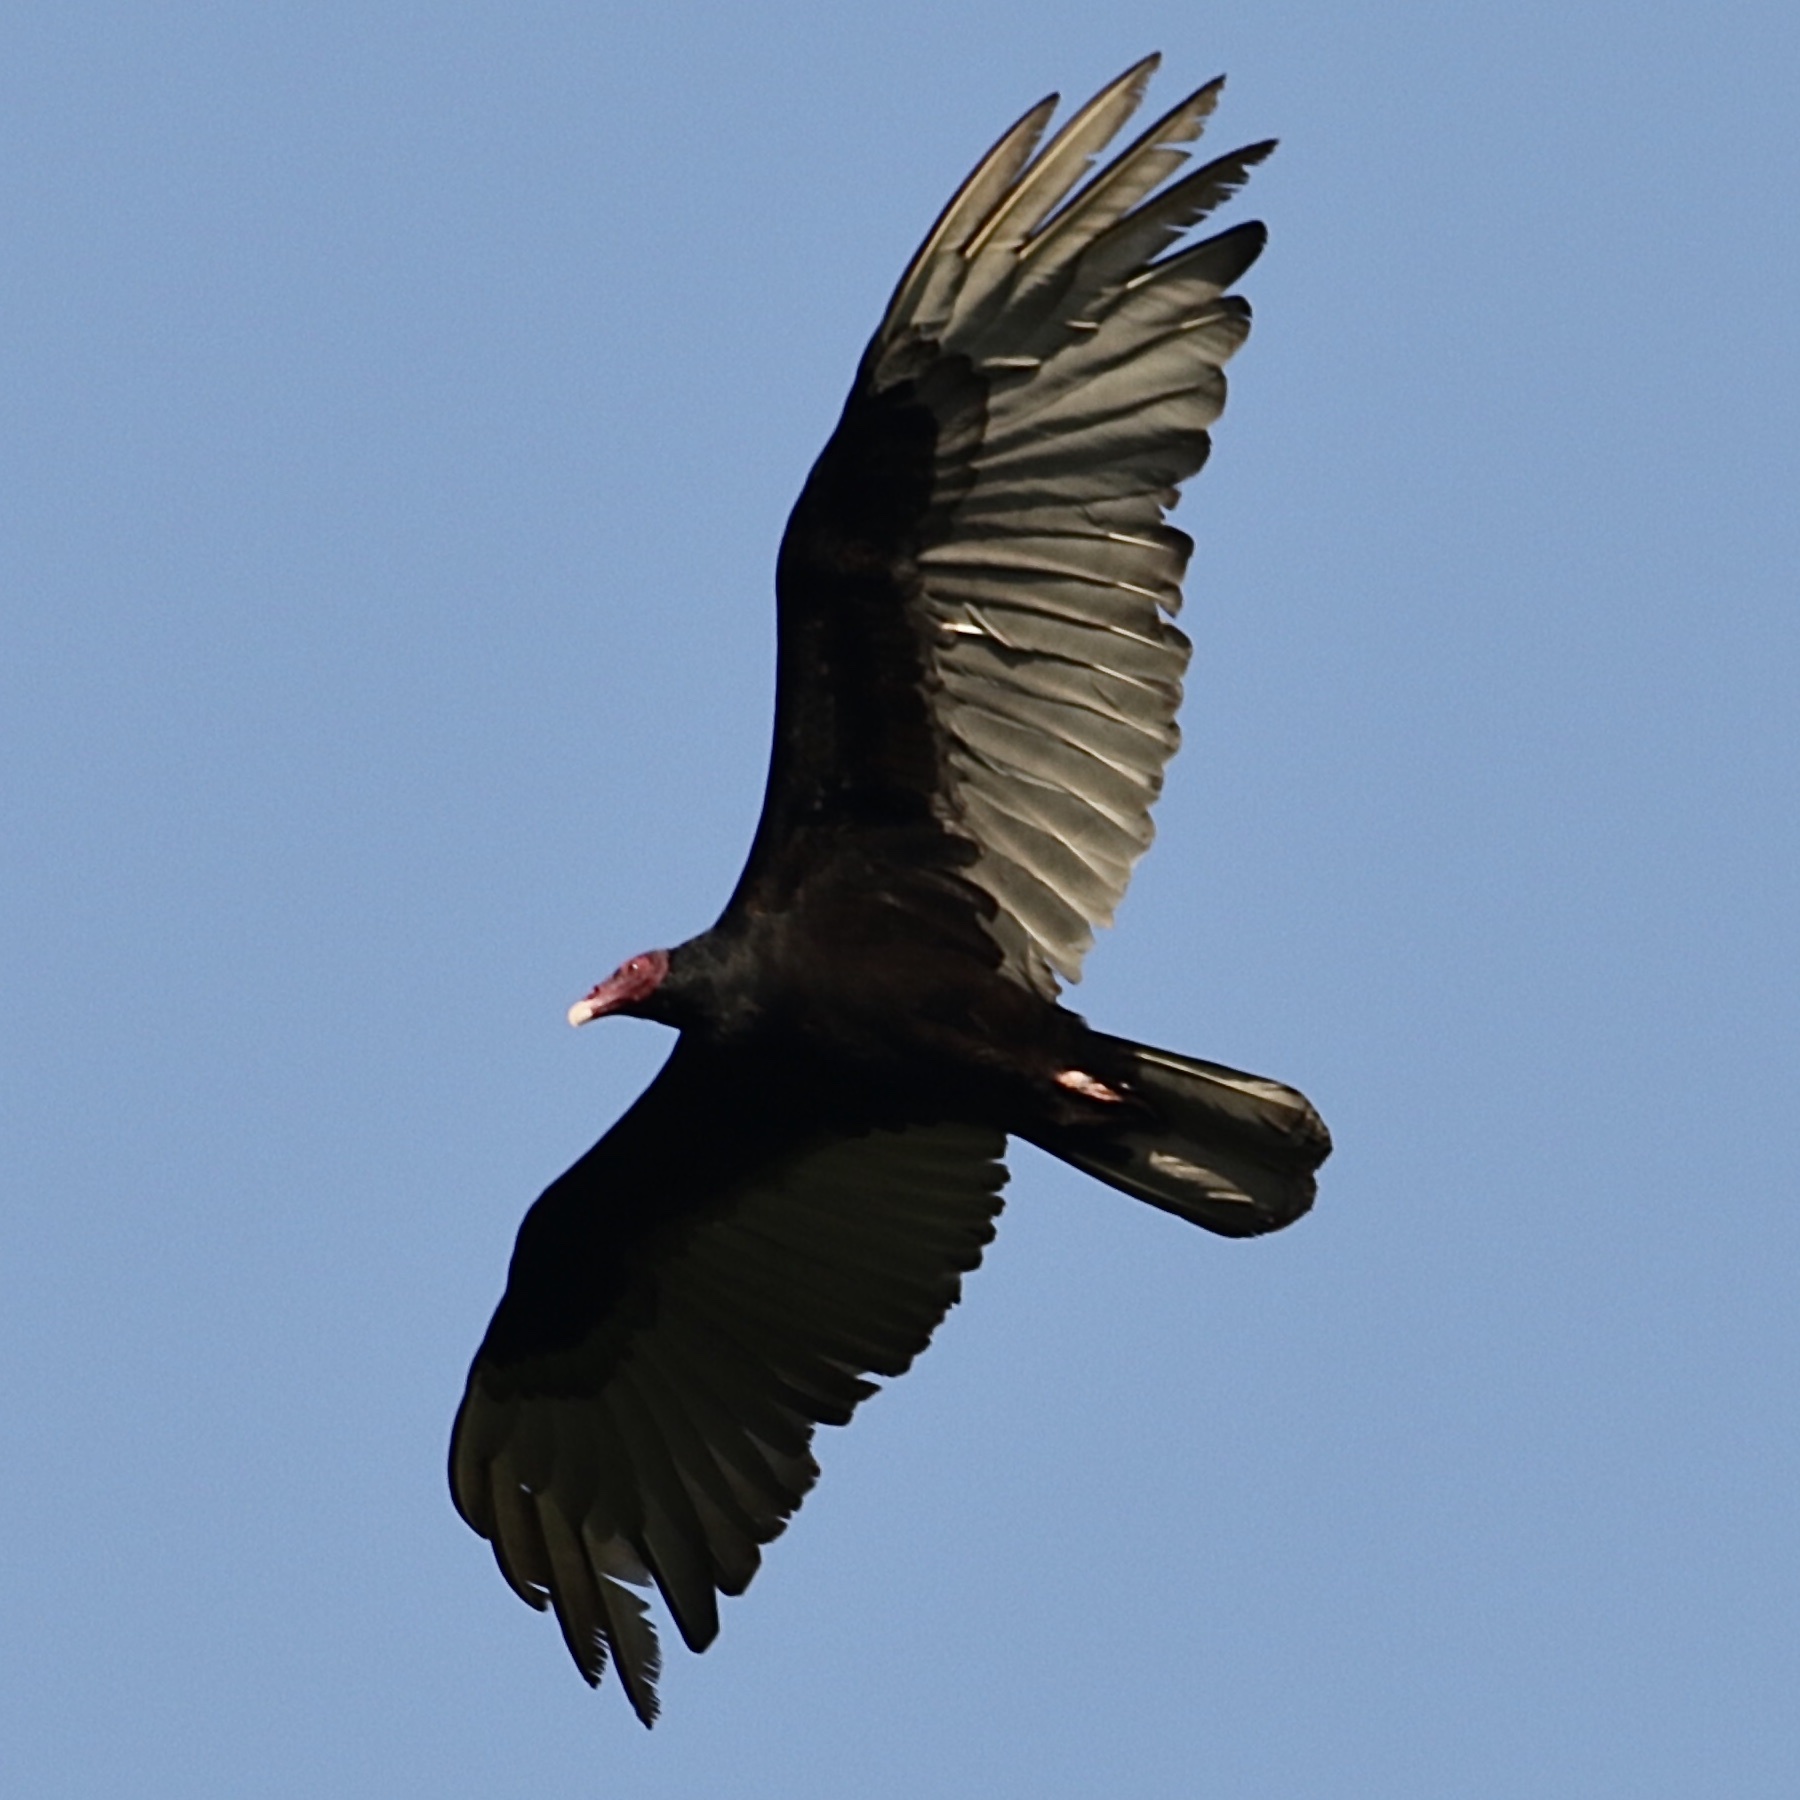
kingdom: Animalia
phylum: Chordata
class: Aves
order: Accipitriformes
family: Cathartidae
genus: Cathartes
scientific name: Cathartes aura
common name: Turkey vulture
